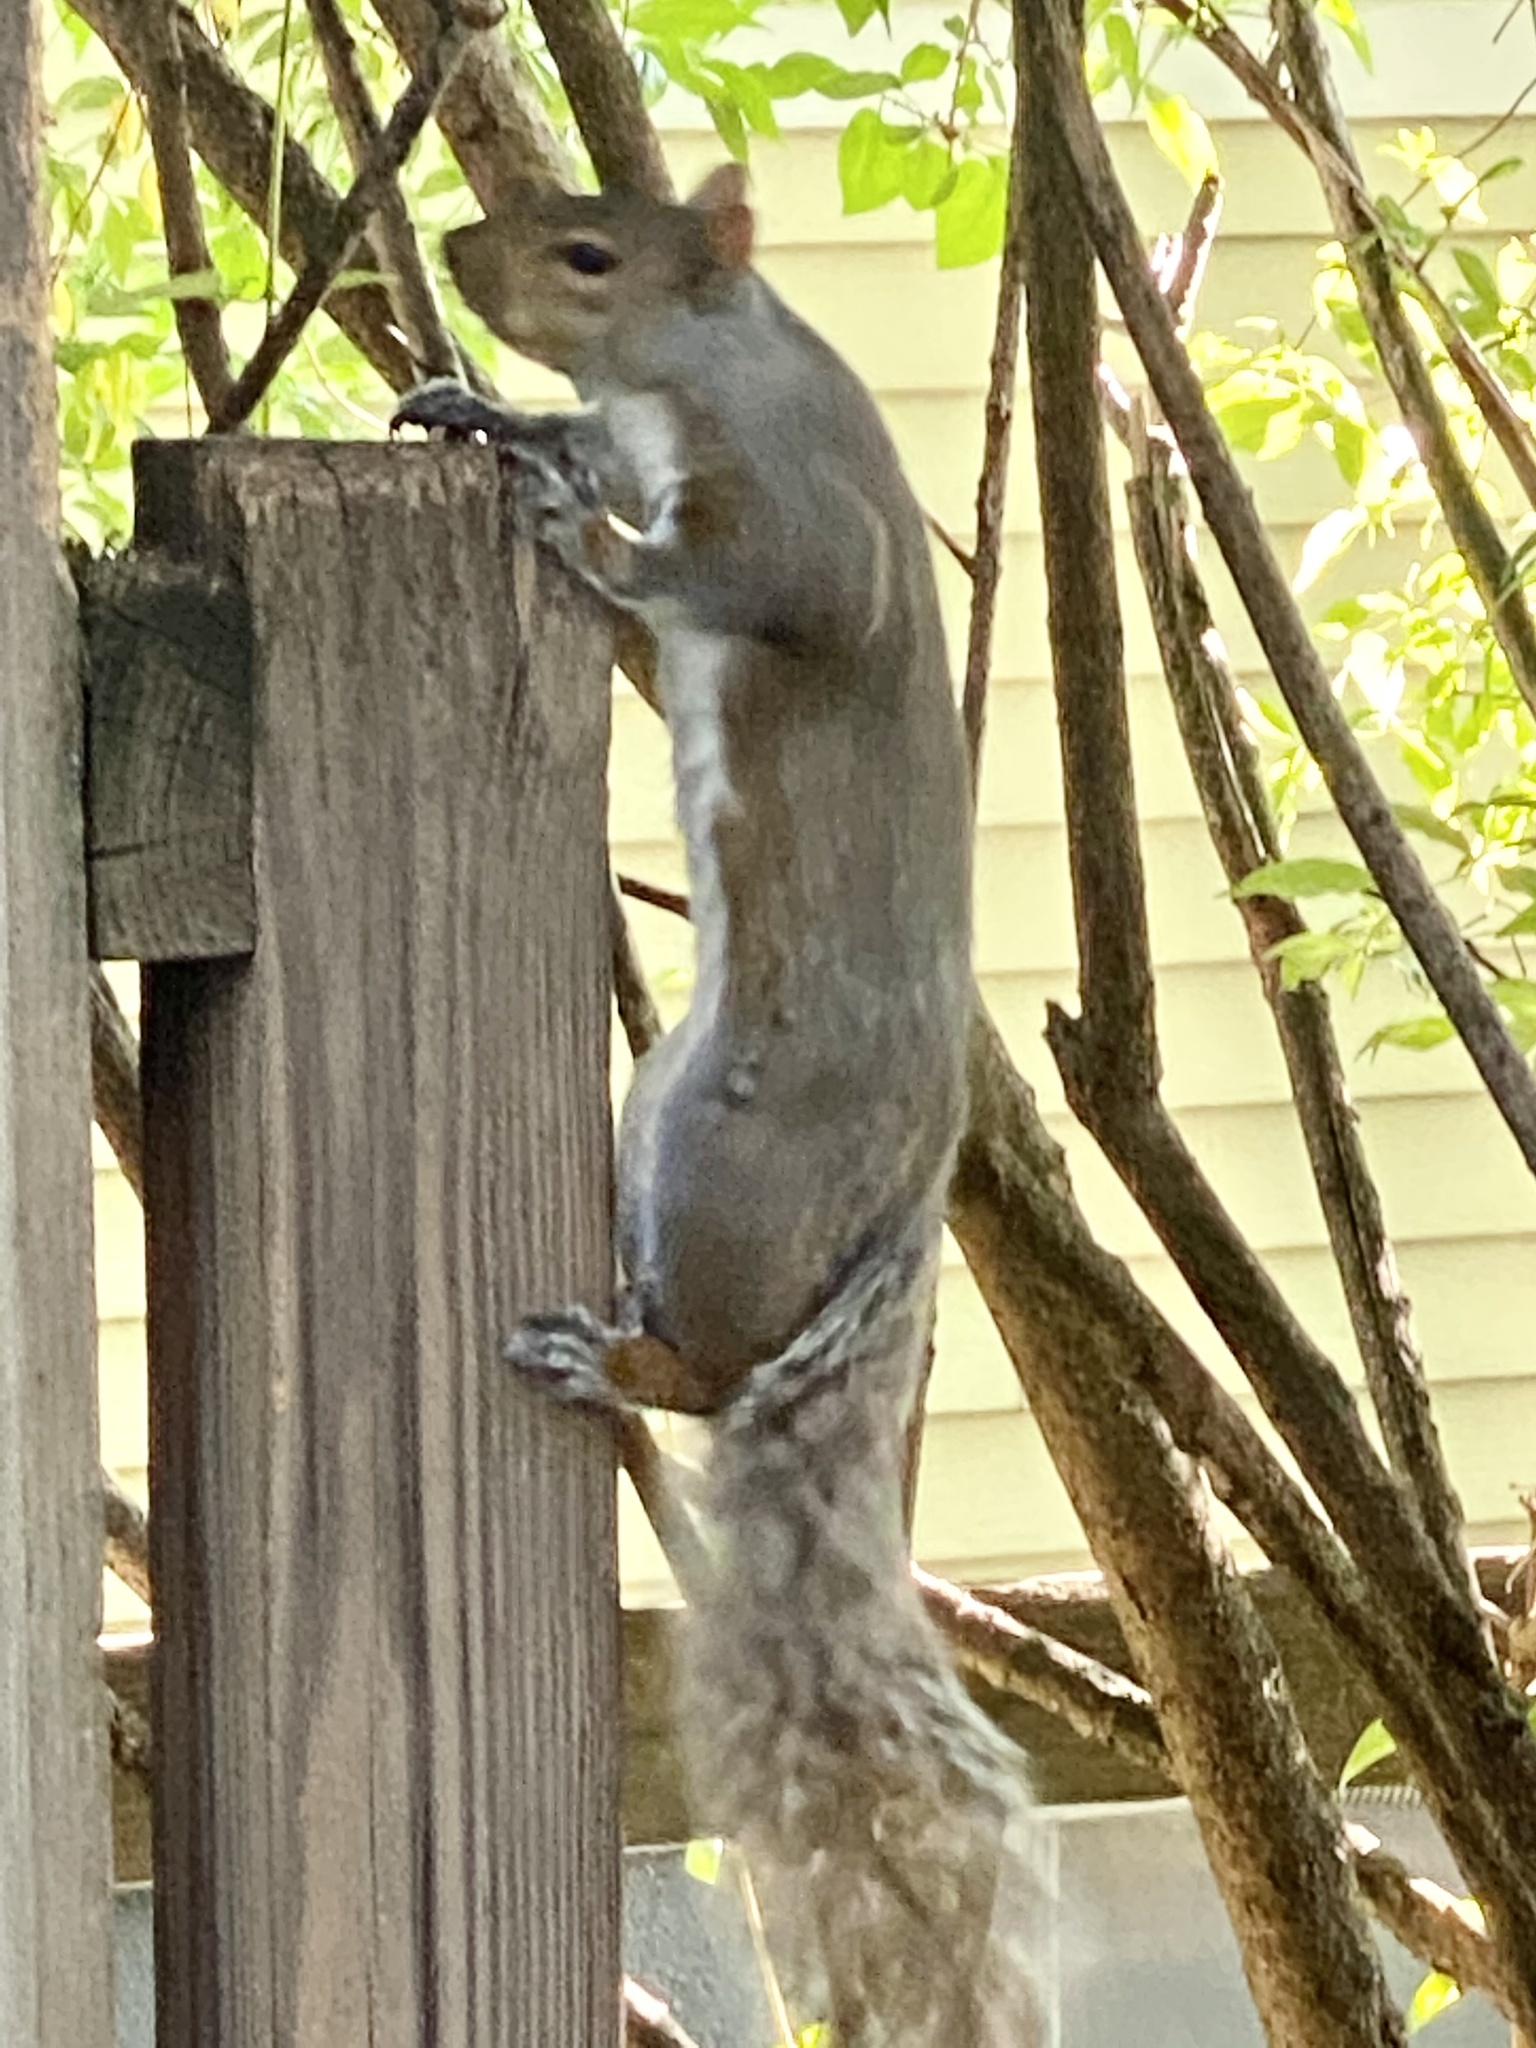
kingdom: Animalia
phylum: Chordata
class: Mammalia
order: Rodentia
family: Sciuridae
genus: Sciurus
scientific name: Sciurus carolinensis
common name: Eastern gray squirrel
